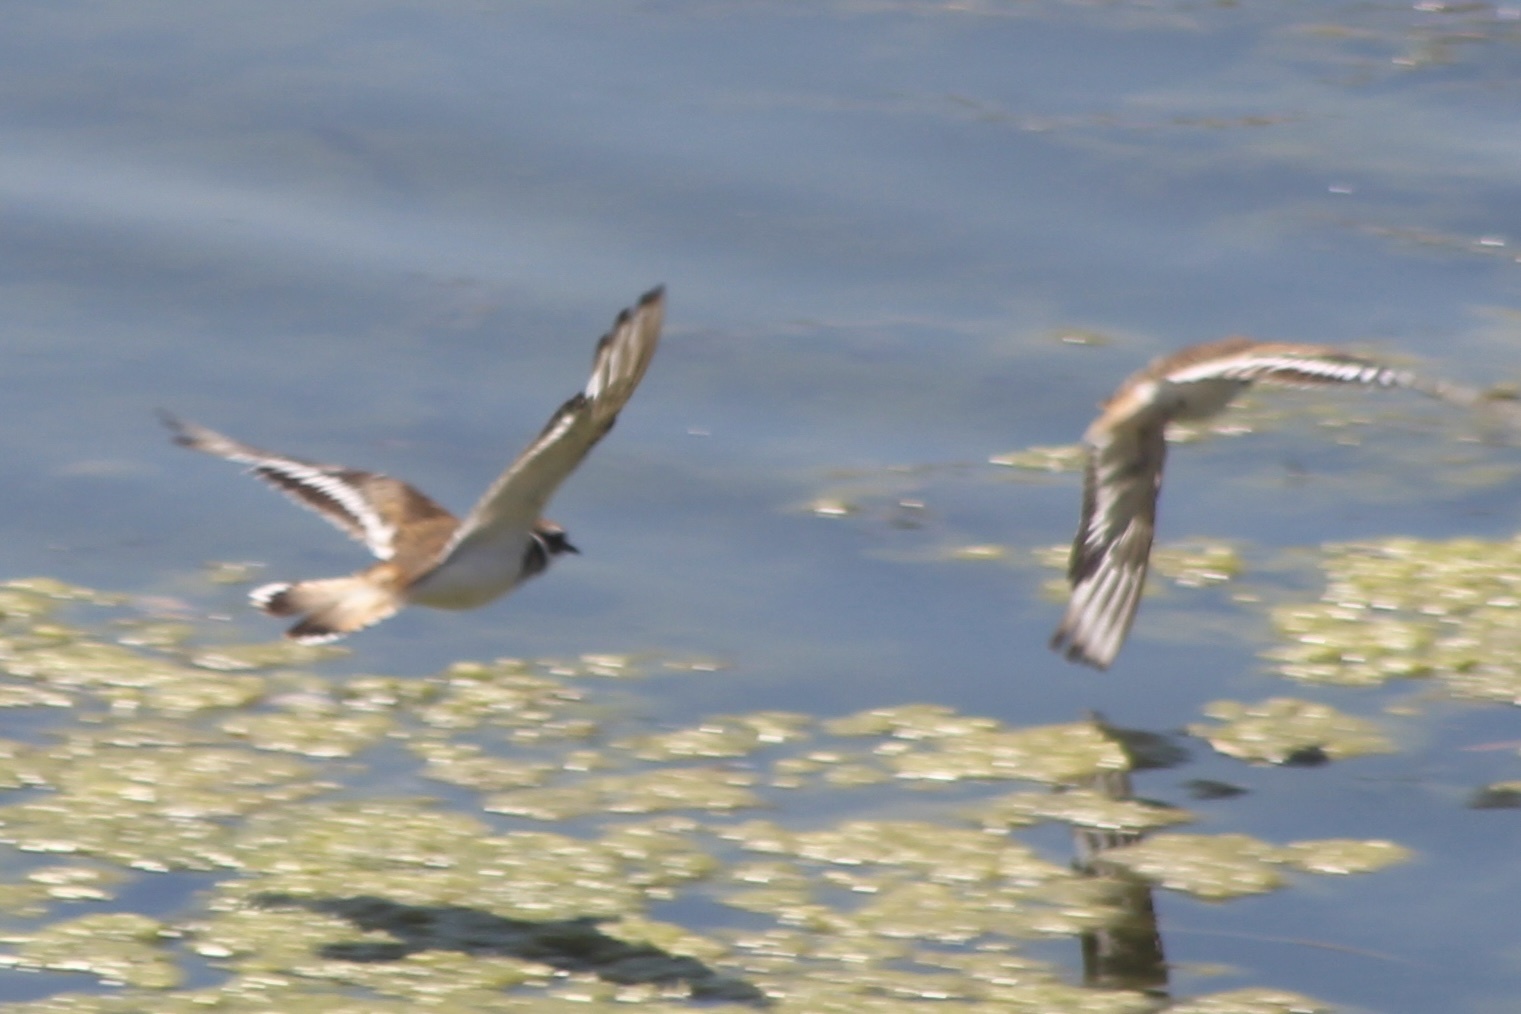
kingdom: Animalia
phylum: Chordata
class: Aves
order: Charadriiformes
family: Charadriidae
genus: Charadrius
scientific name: Charadrius vociferus
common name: Killdeer
